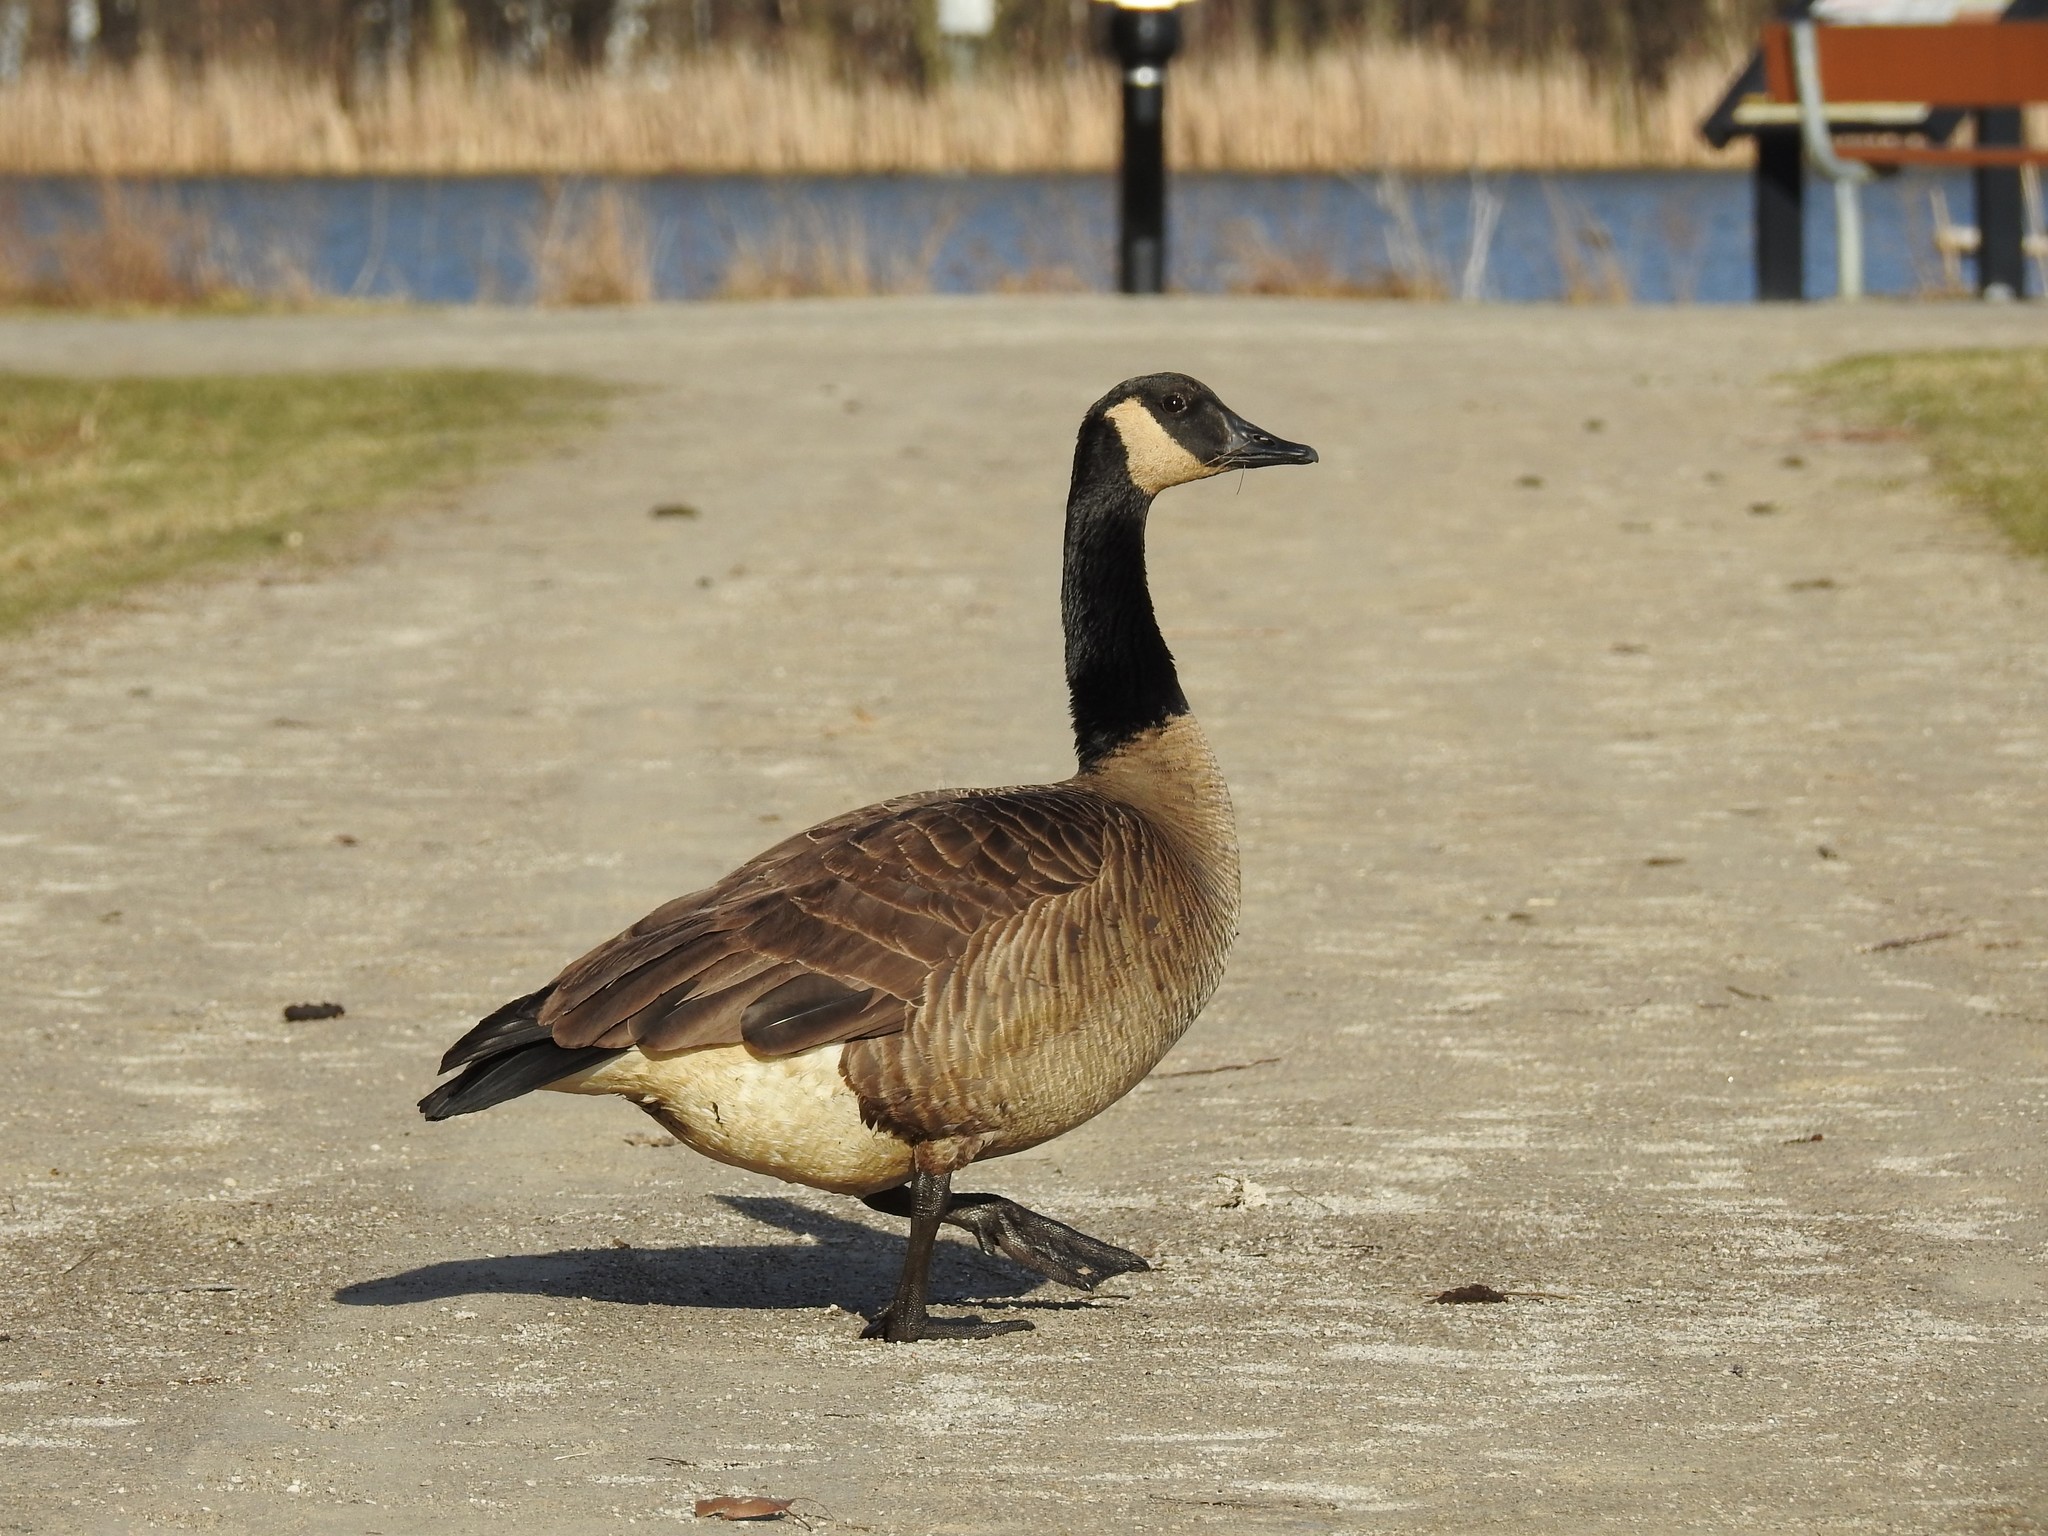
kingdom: Animalia
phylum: Chordata
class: Aves
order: Anseriformes
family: Anatidae
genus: Branta
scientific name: Branta canadensis
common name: Canada goose
